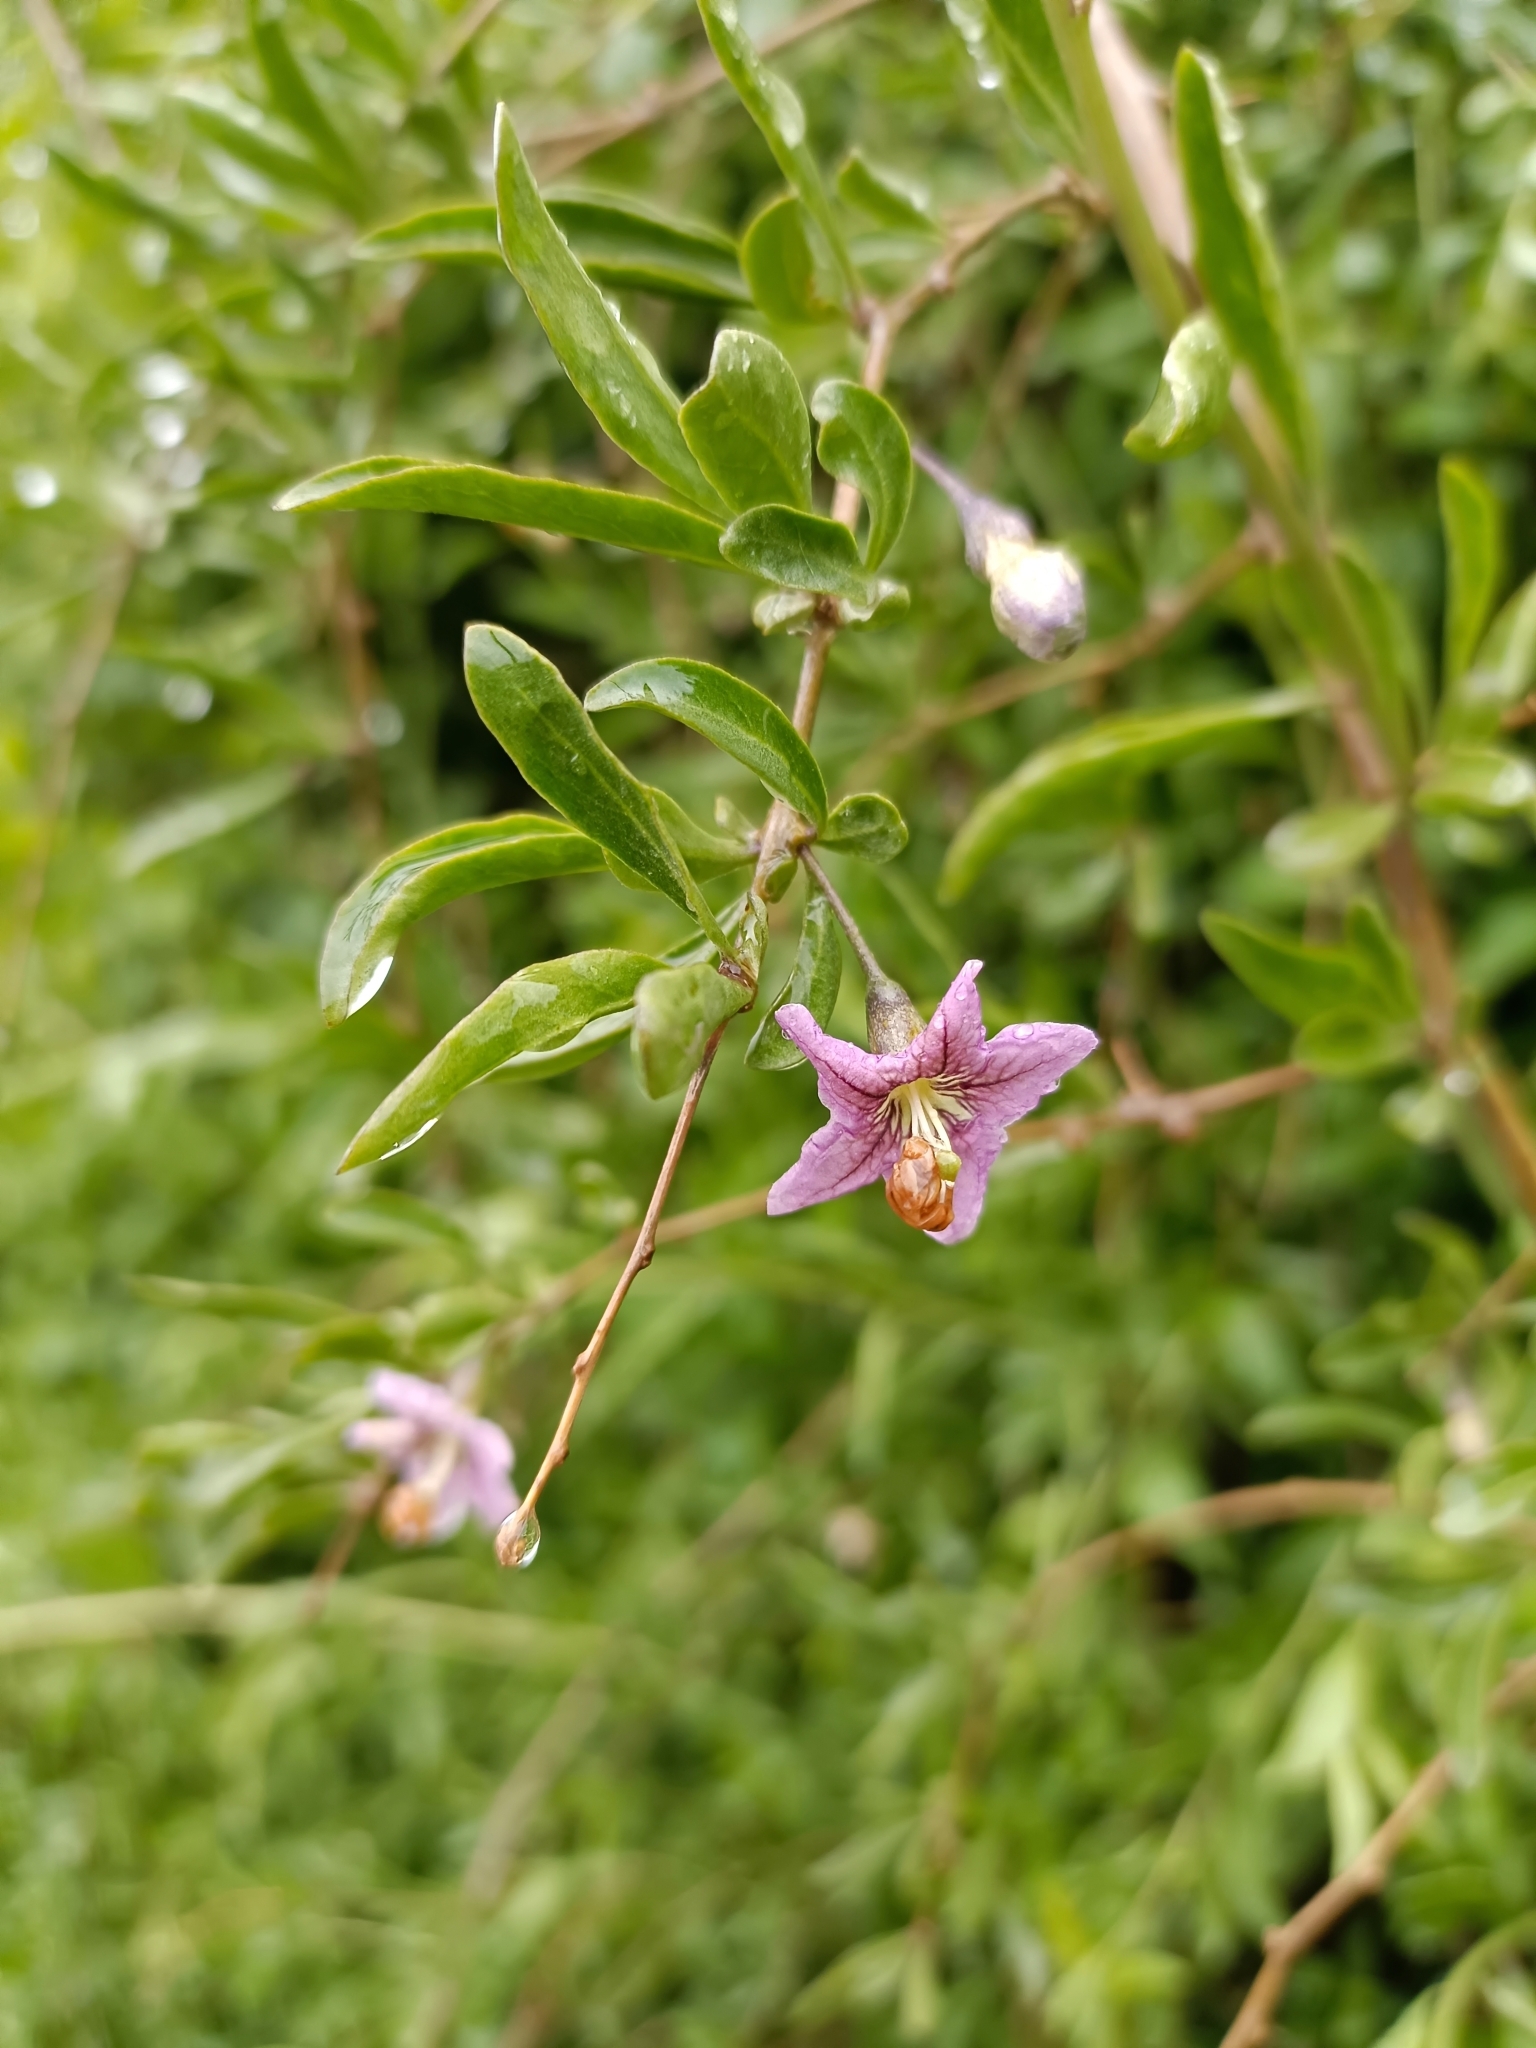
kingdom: Plantae
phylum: Tracheophyta
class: Magnoliopsida
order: Solanales
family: Solanaceae
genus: Lycium
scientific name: Lycium barbarum
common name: Duke of argyll's teaplant
